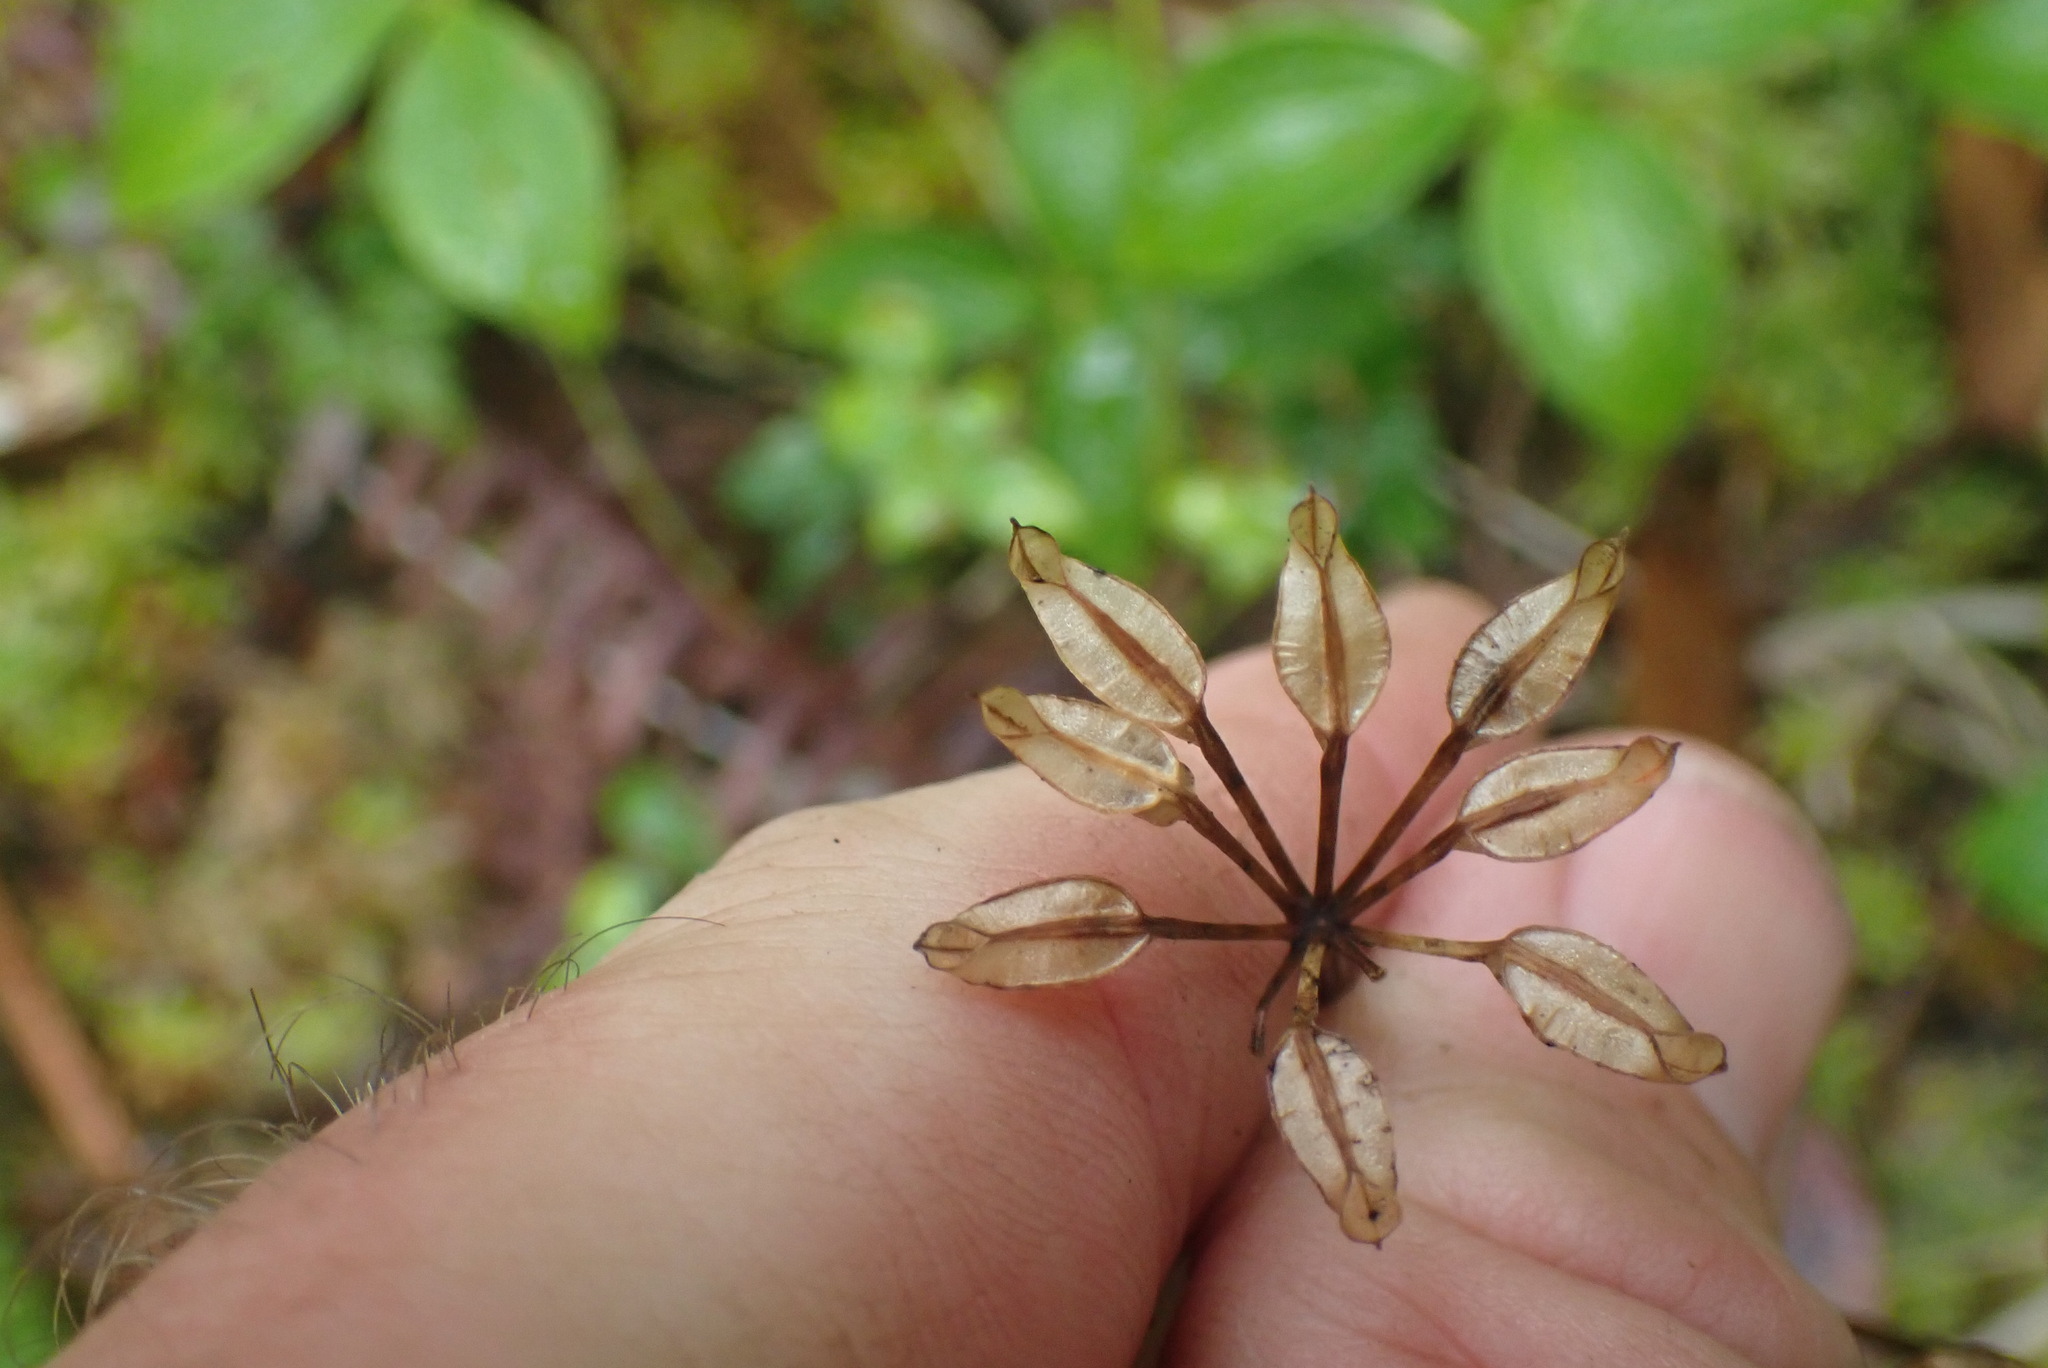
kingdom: Plantae
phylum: Tracheophyta
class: Magnoliopsida
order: Ranunculales
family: Ranunculaceae
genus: Coptis
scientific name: Coptis aspleniifolia
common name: Fern-leaved goldthread
